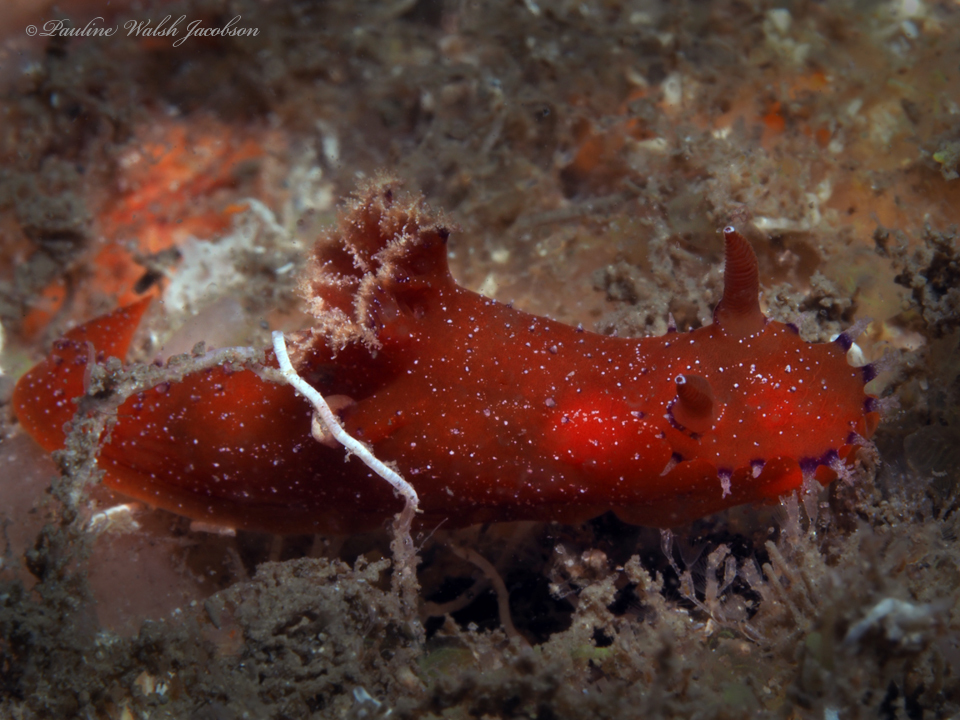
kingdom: Animalia
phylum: Mollusca
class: Gastropoda
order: Nudibranchia
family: Polyceridae
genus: Plocamopherus
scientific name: Plocamopherus lucayensis
